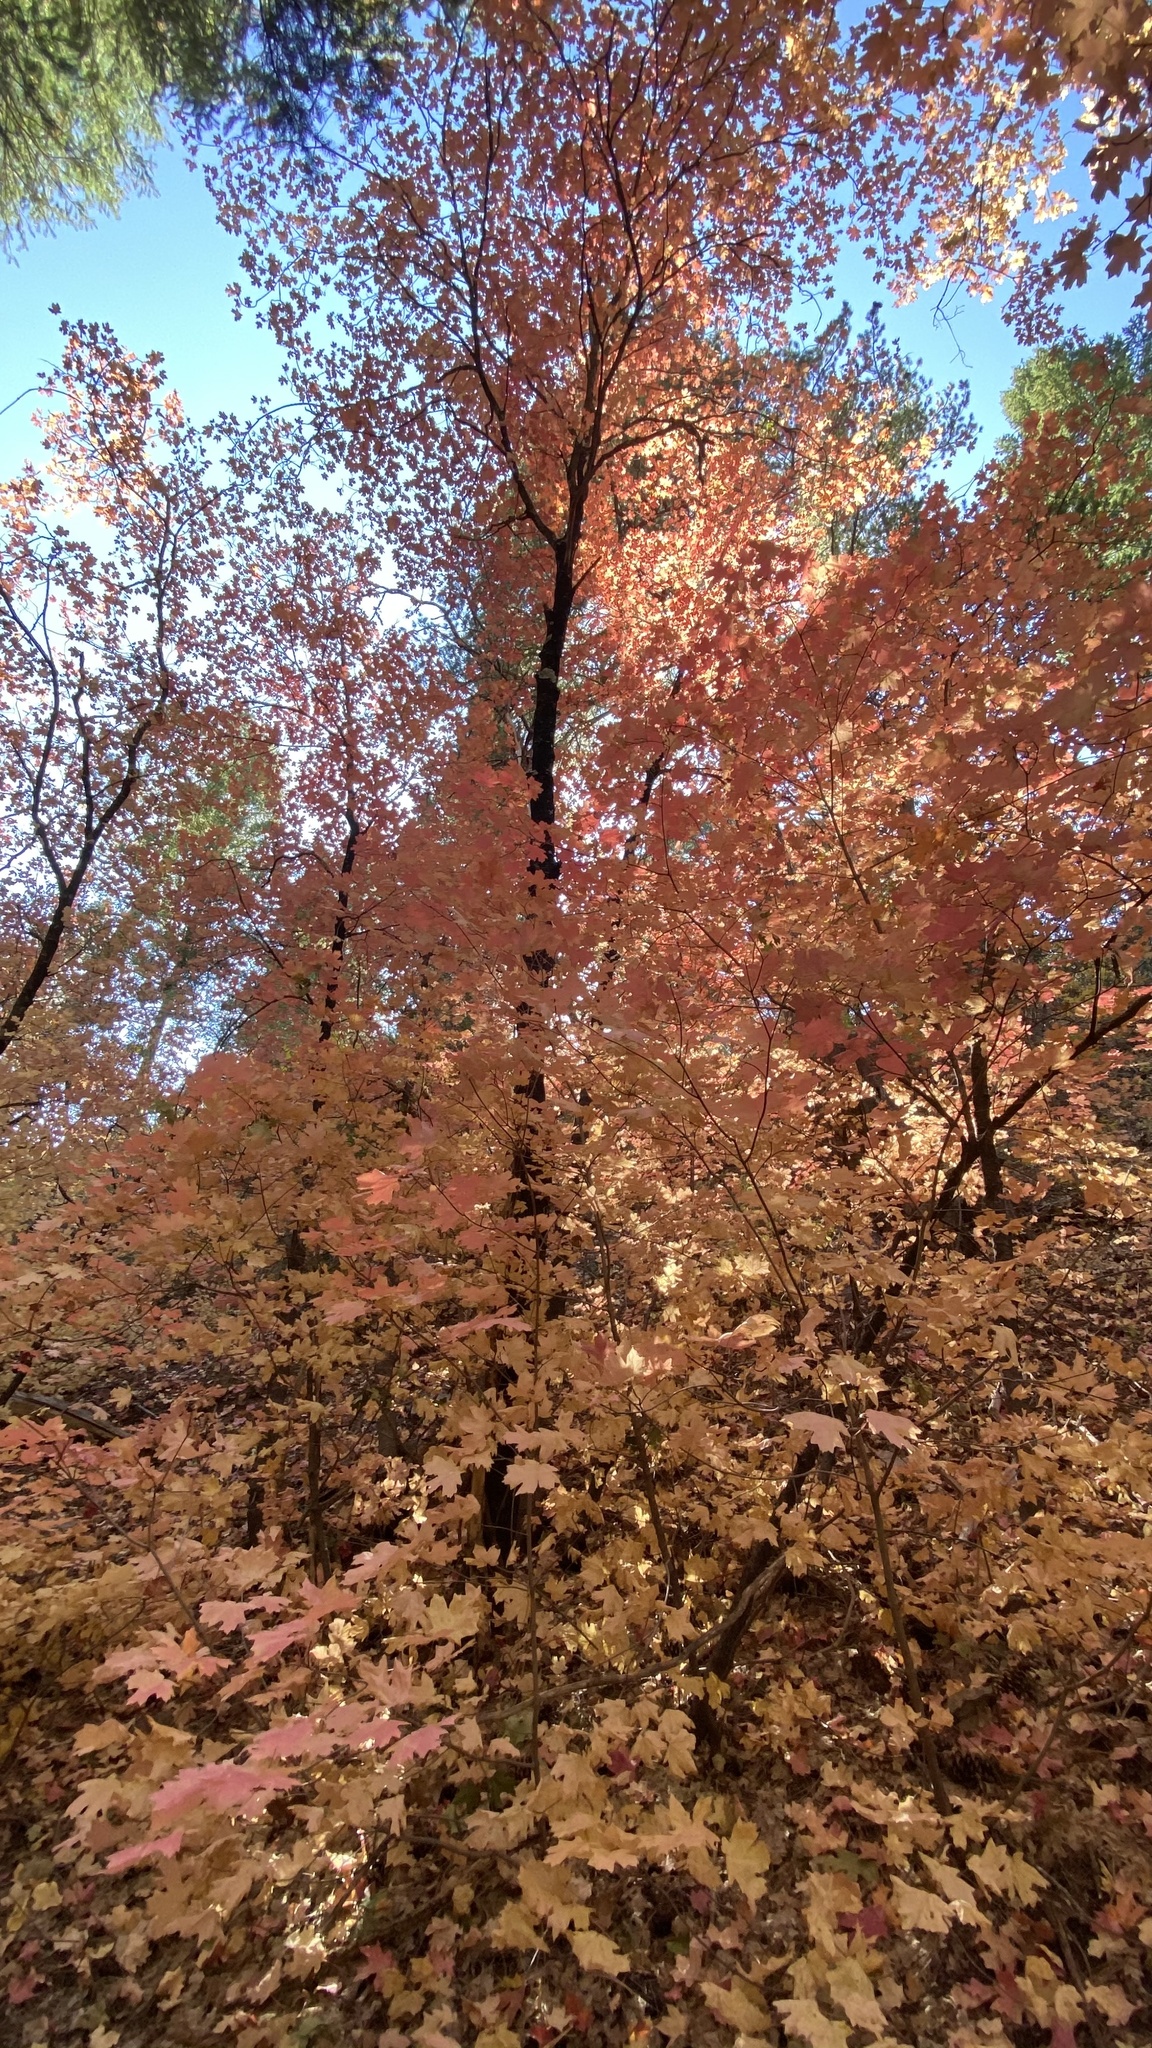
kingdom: Plantae
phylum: Tracheophyta
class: Magnoliopsida
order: Sapindales
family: Sapindaceae
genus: Acer
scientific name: Acer grandidentatum
